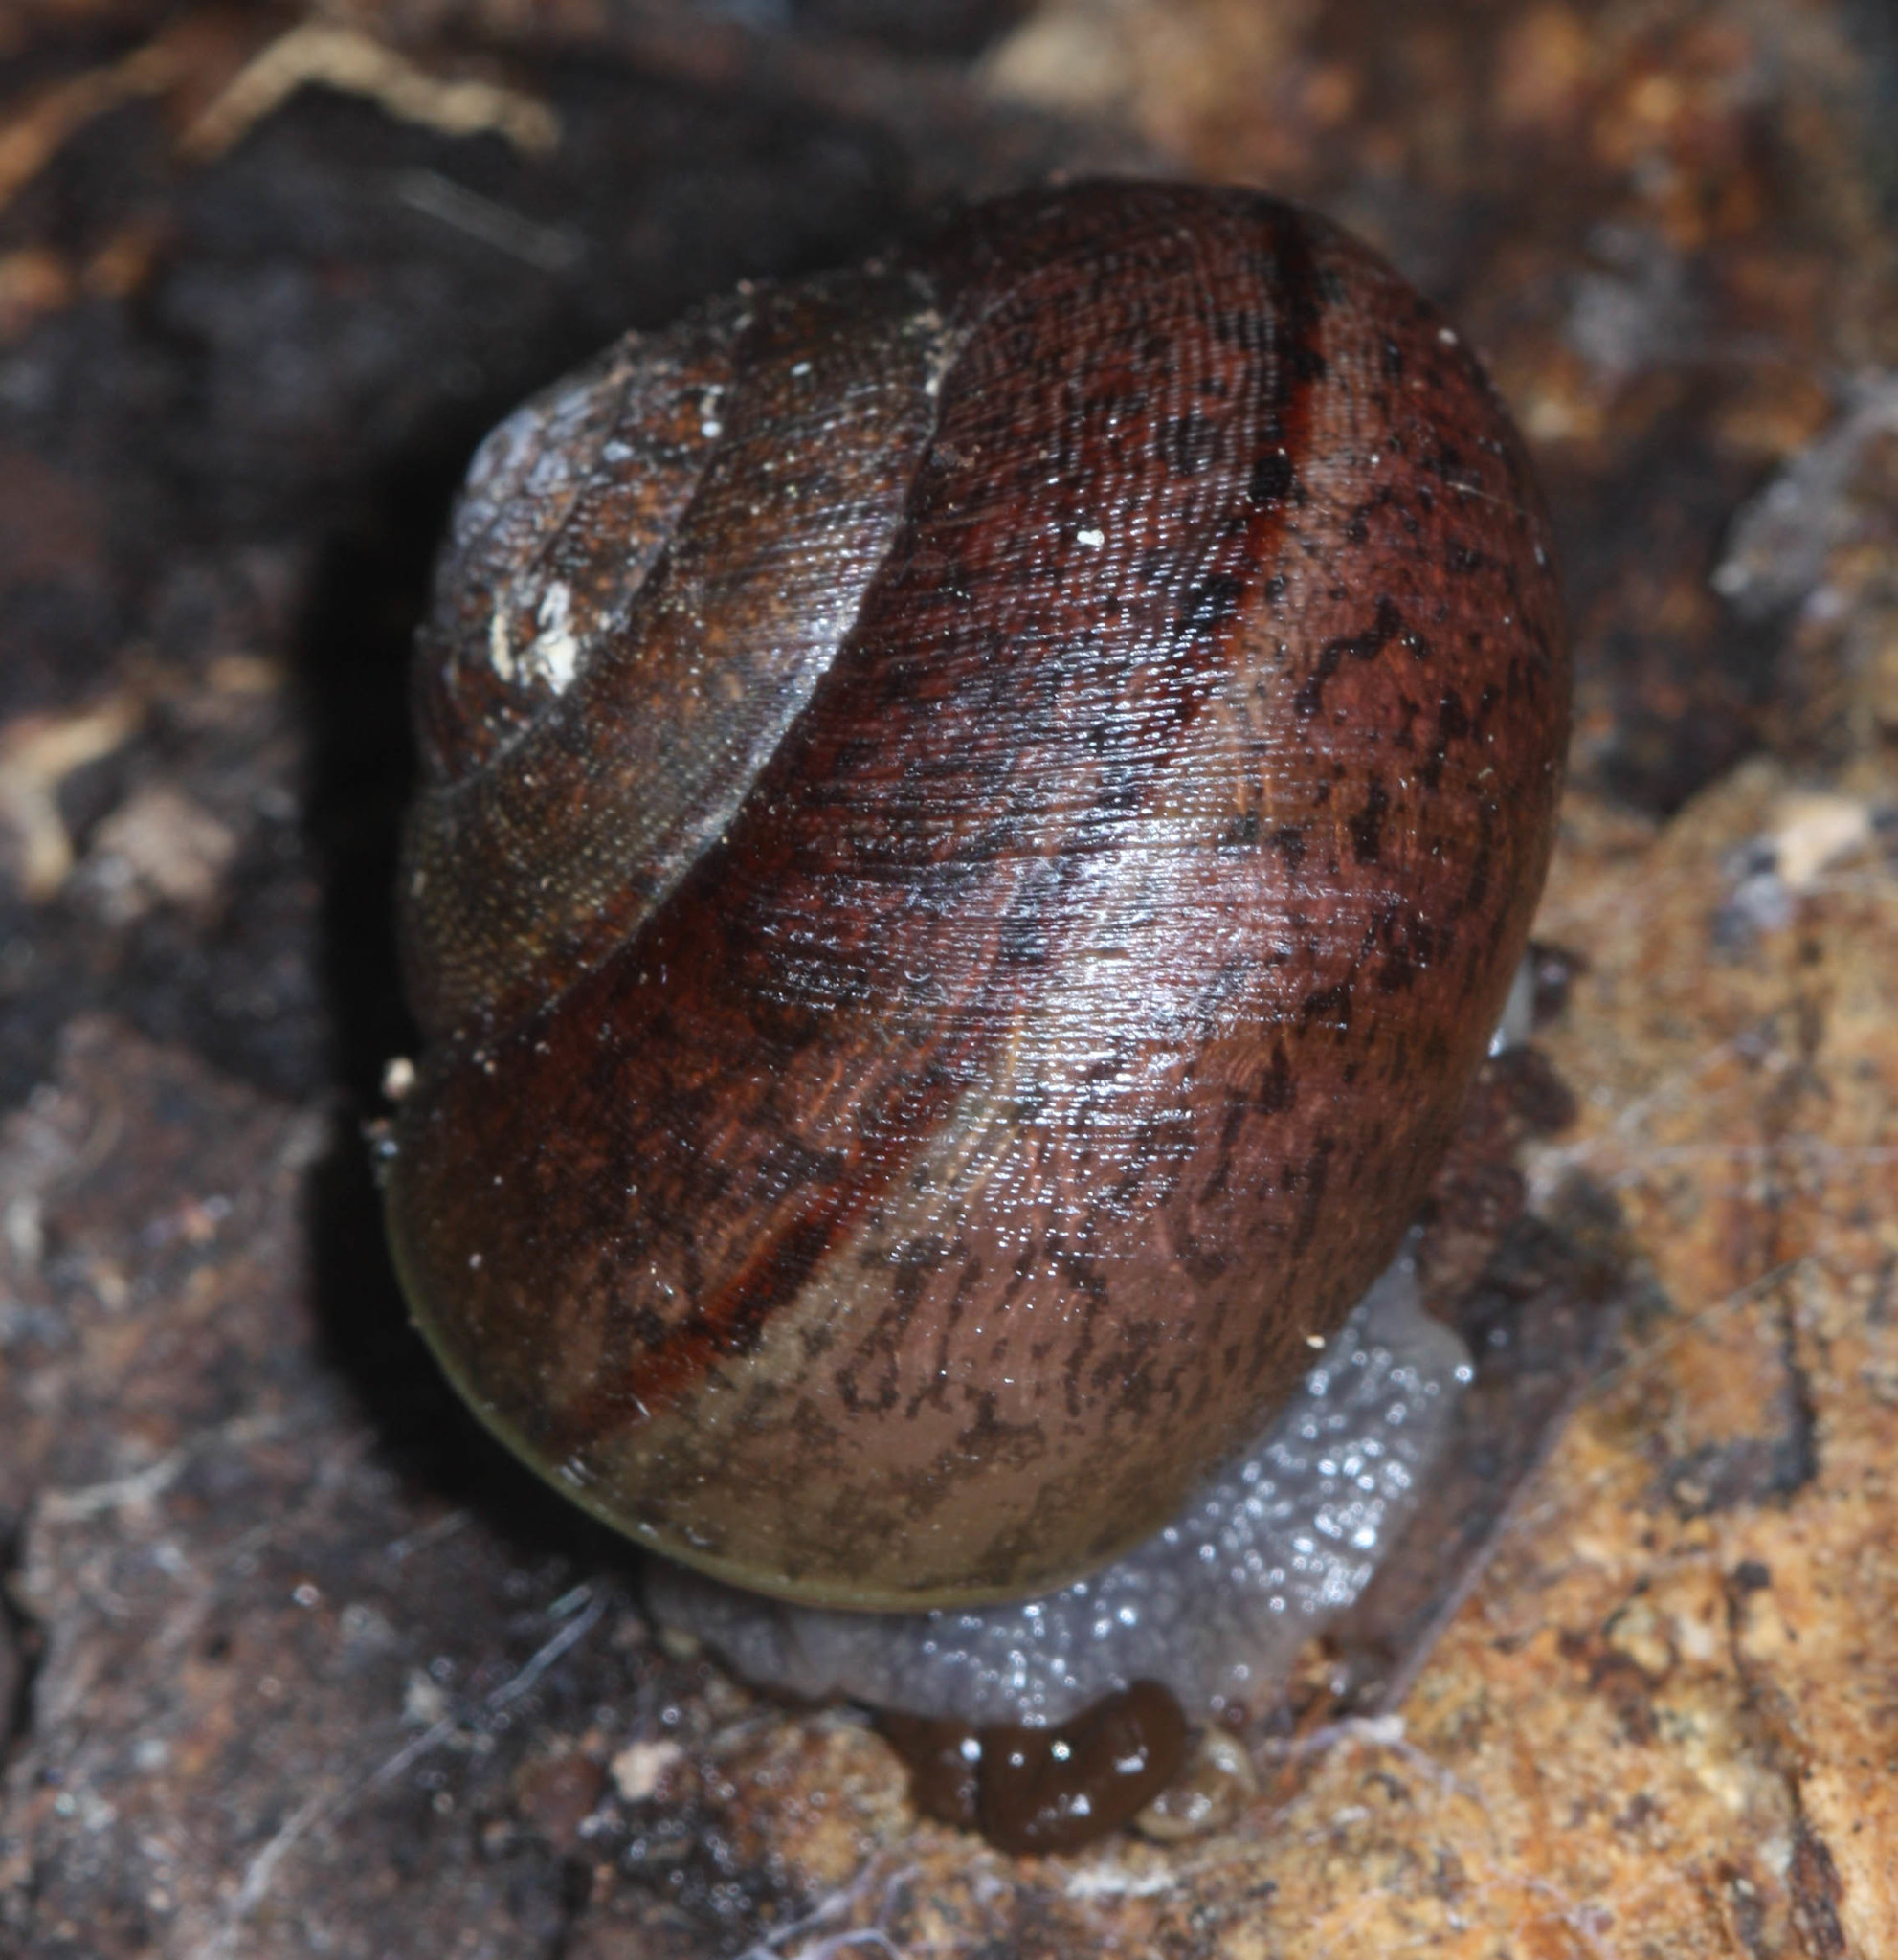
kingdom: Animalia
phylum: Mollusca
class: Gastropoda
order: Stylommatophora
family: Xanthonychidae
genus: Helminthoglypta
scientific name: Helminthoglypta nickliniana
